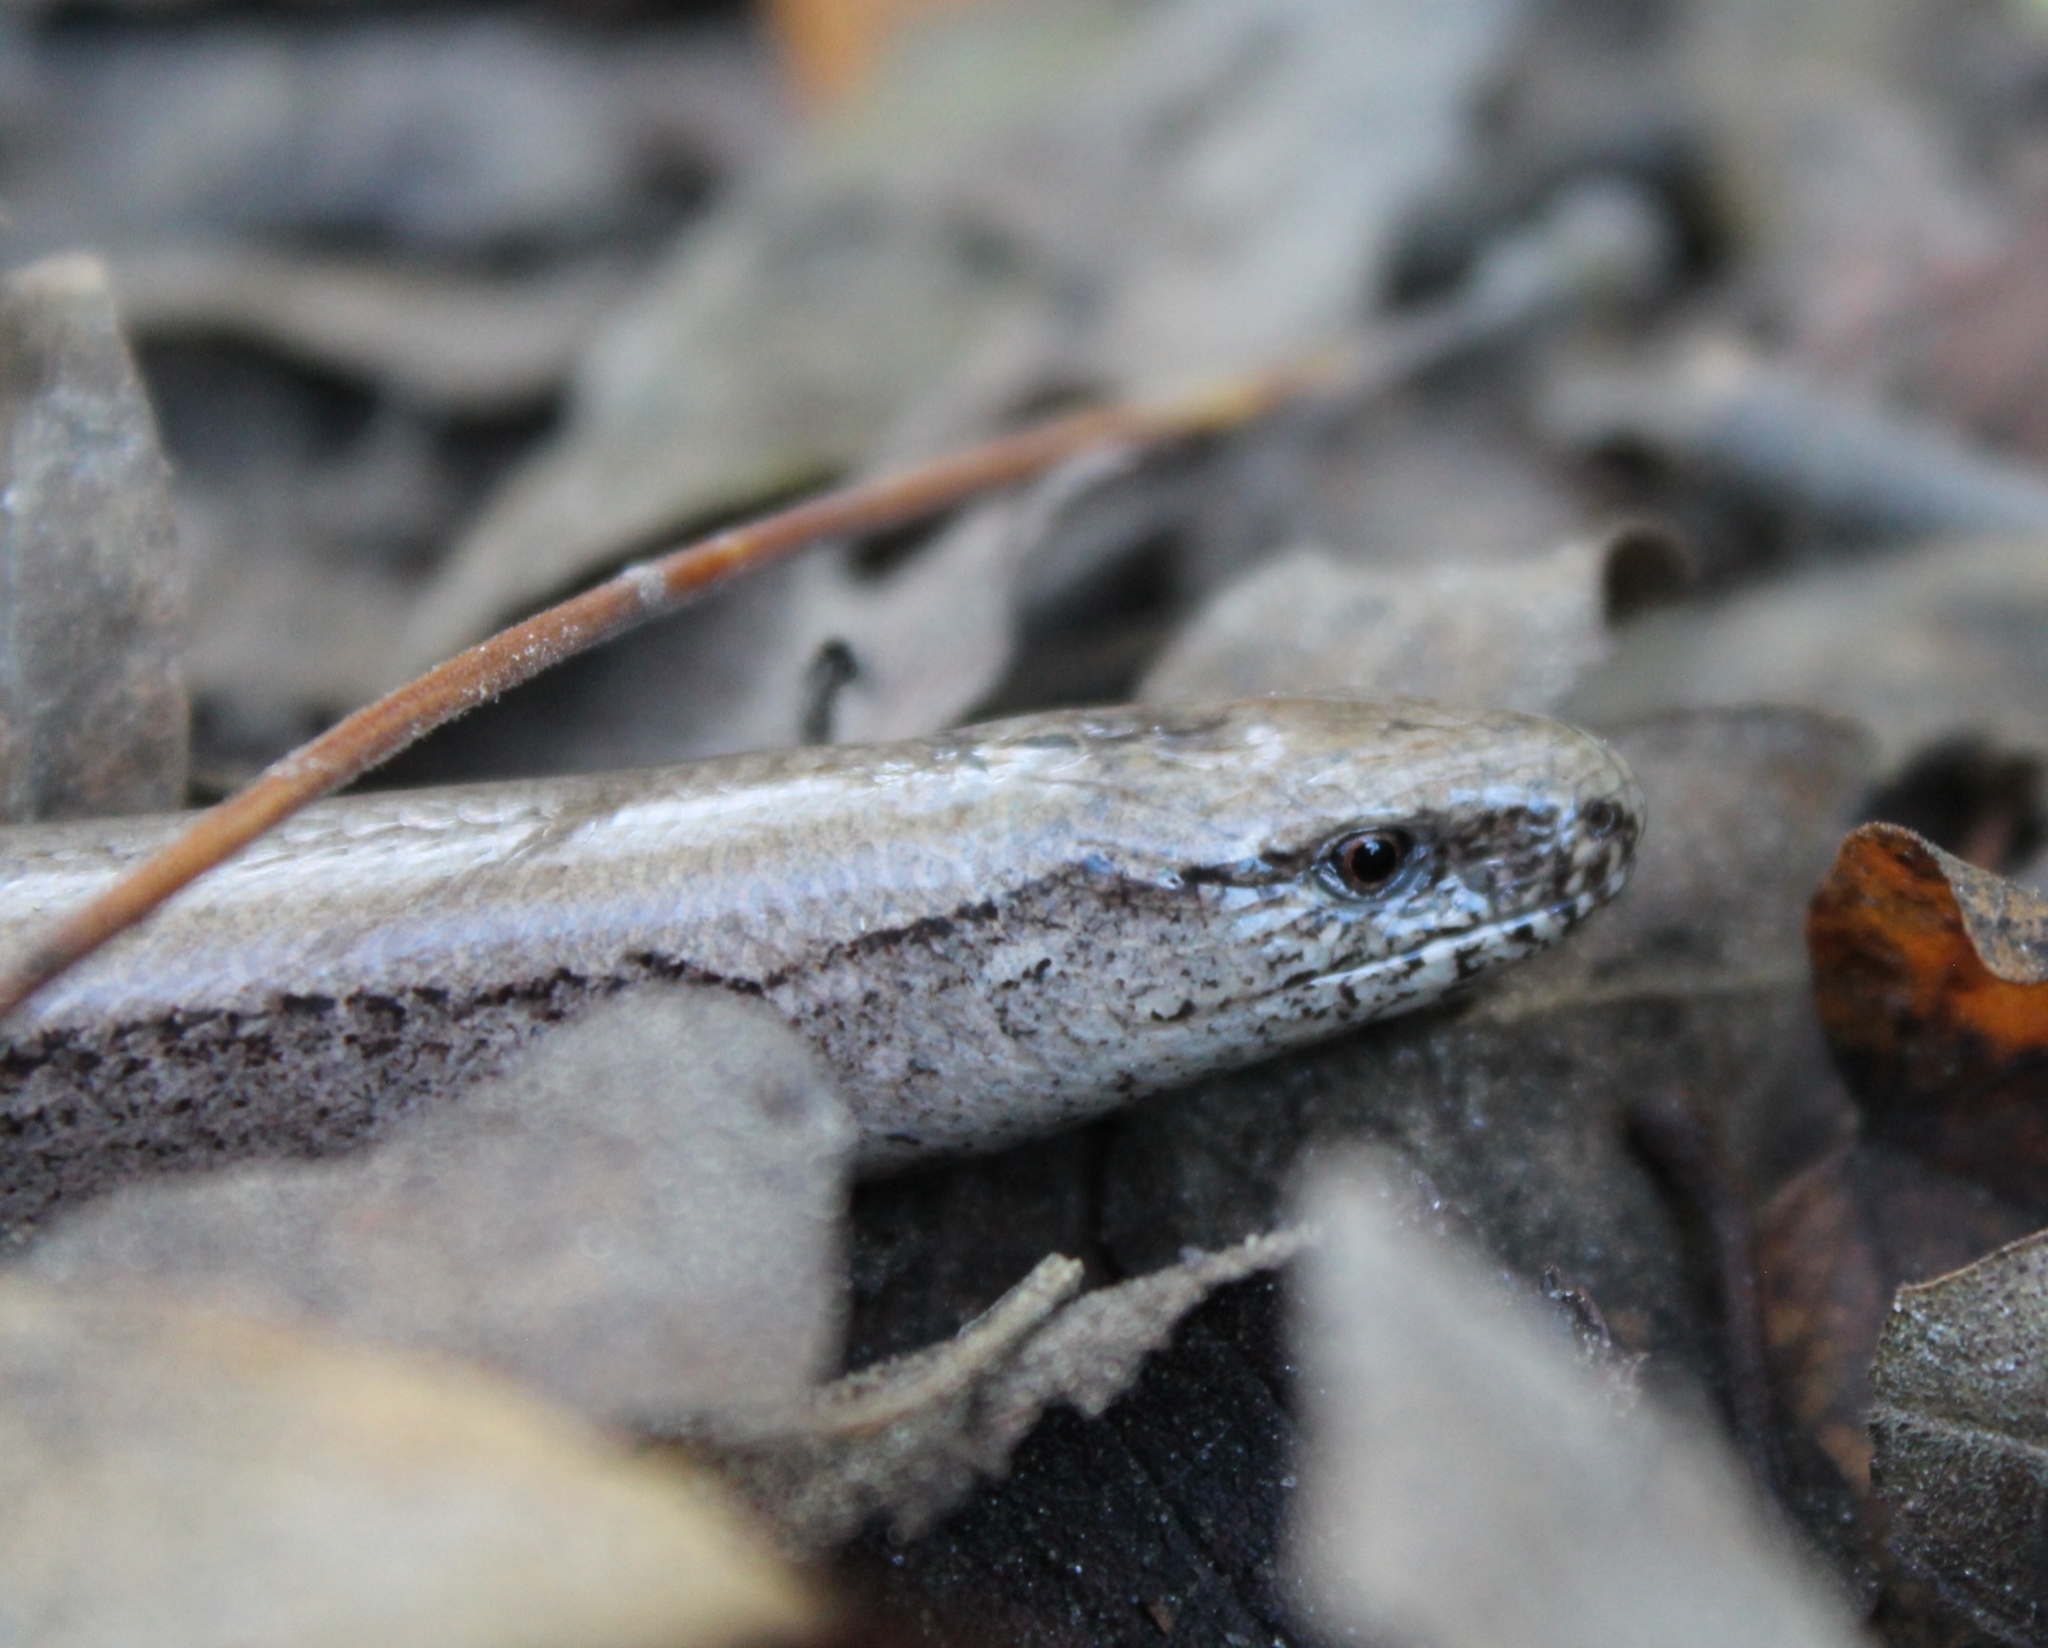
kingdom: Animalia
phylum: Chordata
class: Squamata
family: Anguidae
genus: Anguis
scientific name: Anguis fragilis
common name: Slow worm
